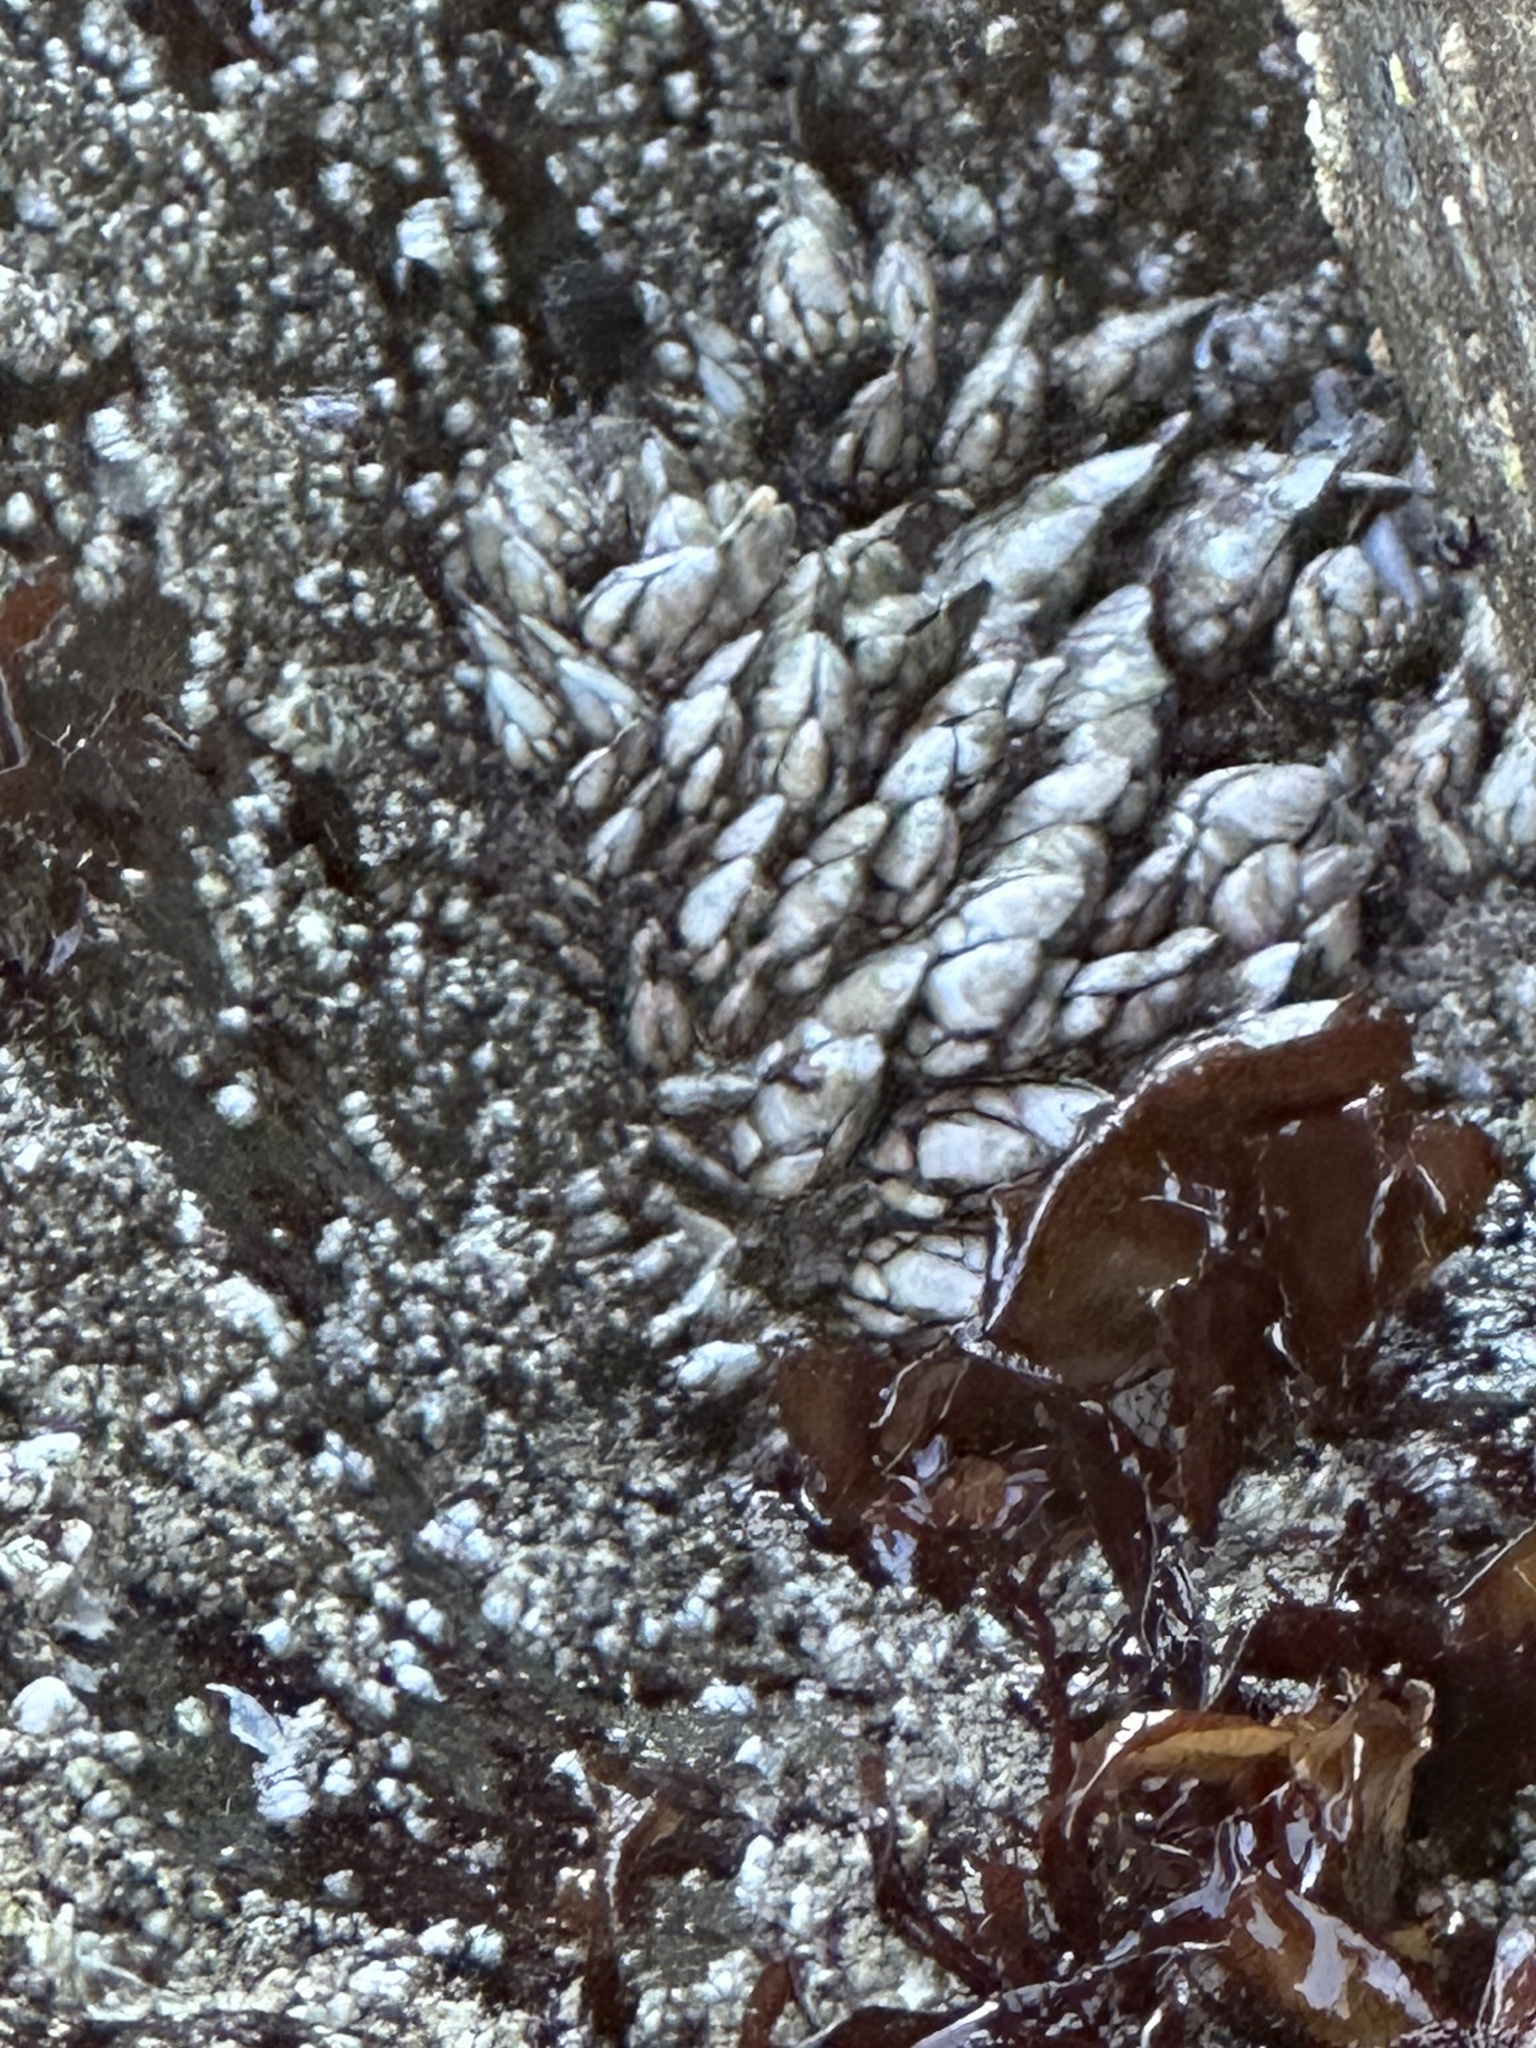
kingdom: Animalia
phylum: Arthropoda
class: Maxillopoda
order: Pedunculata
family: Pollicipedidae
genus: Pollicipes
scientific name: Pollicipes polymerus
